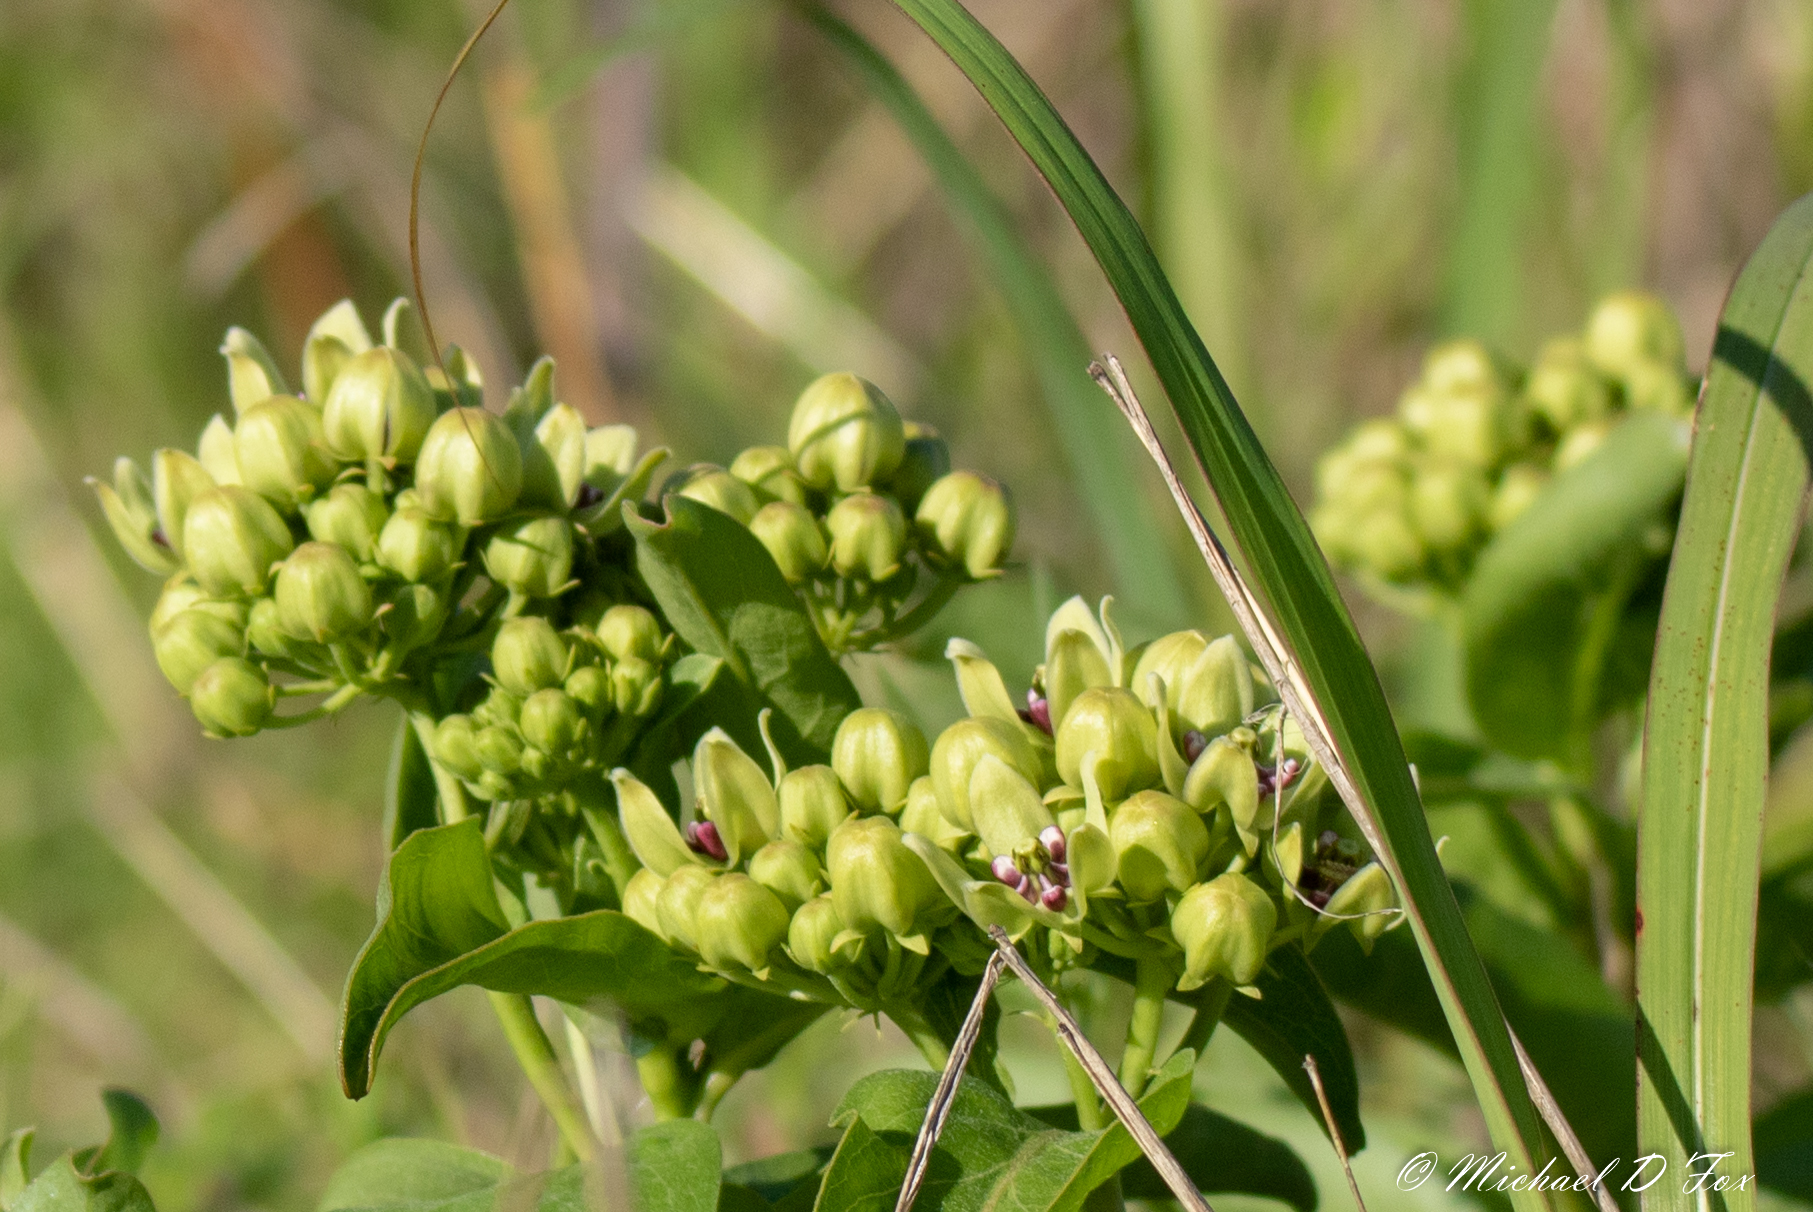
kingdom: Plantae
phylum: Tracheophyta
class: Magnoliopsida
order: Gentianales
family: Apocynaceae
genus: Asclepias
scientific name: Asclepias viridis
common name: Antelope-horns
